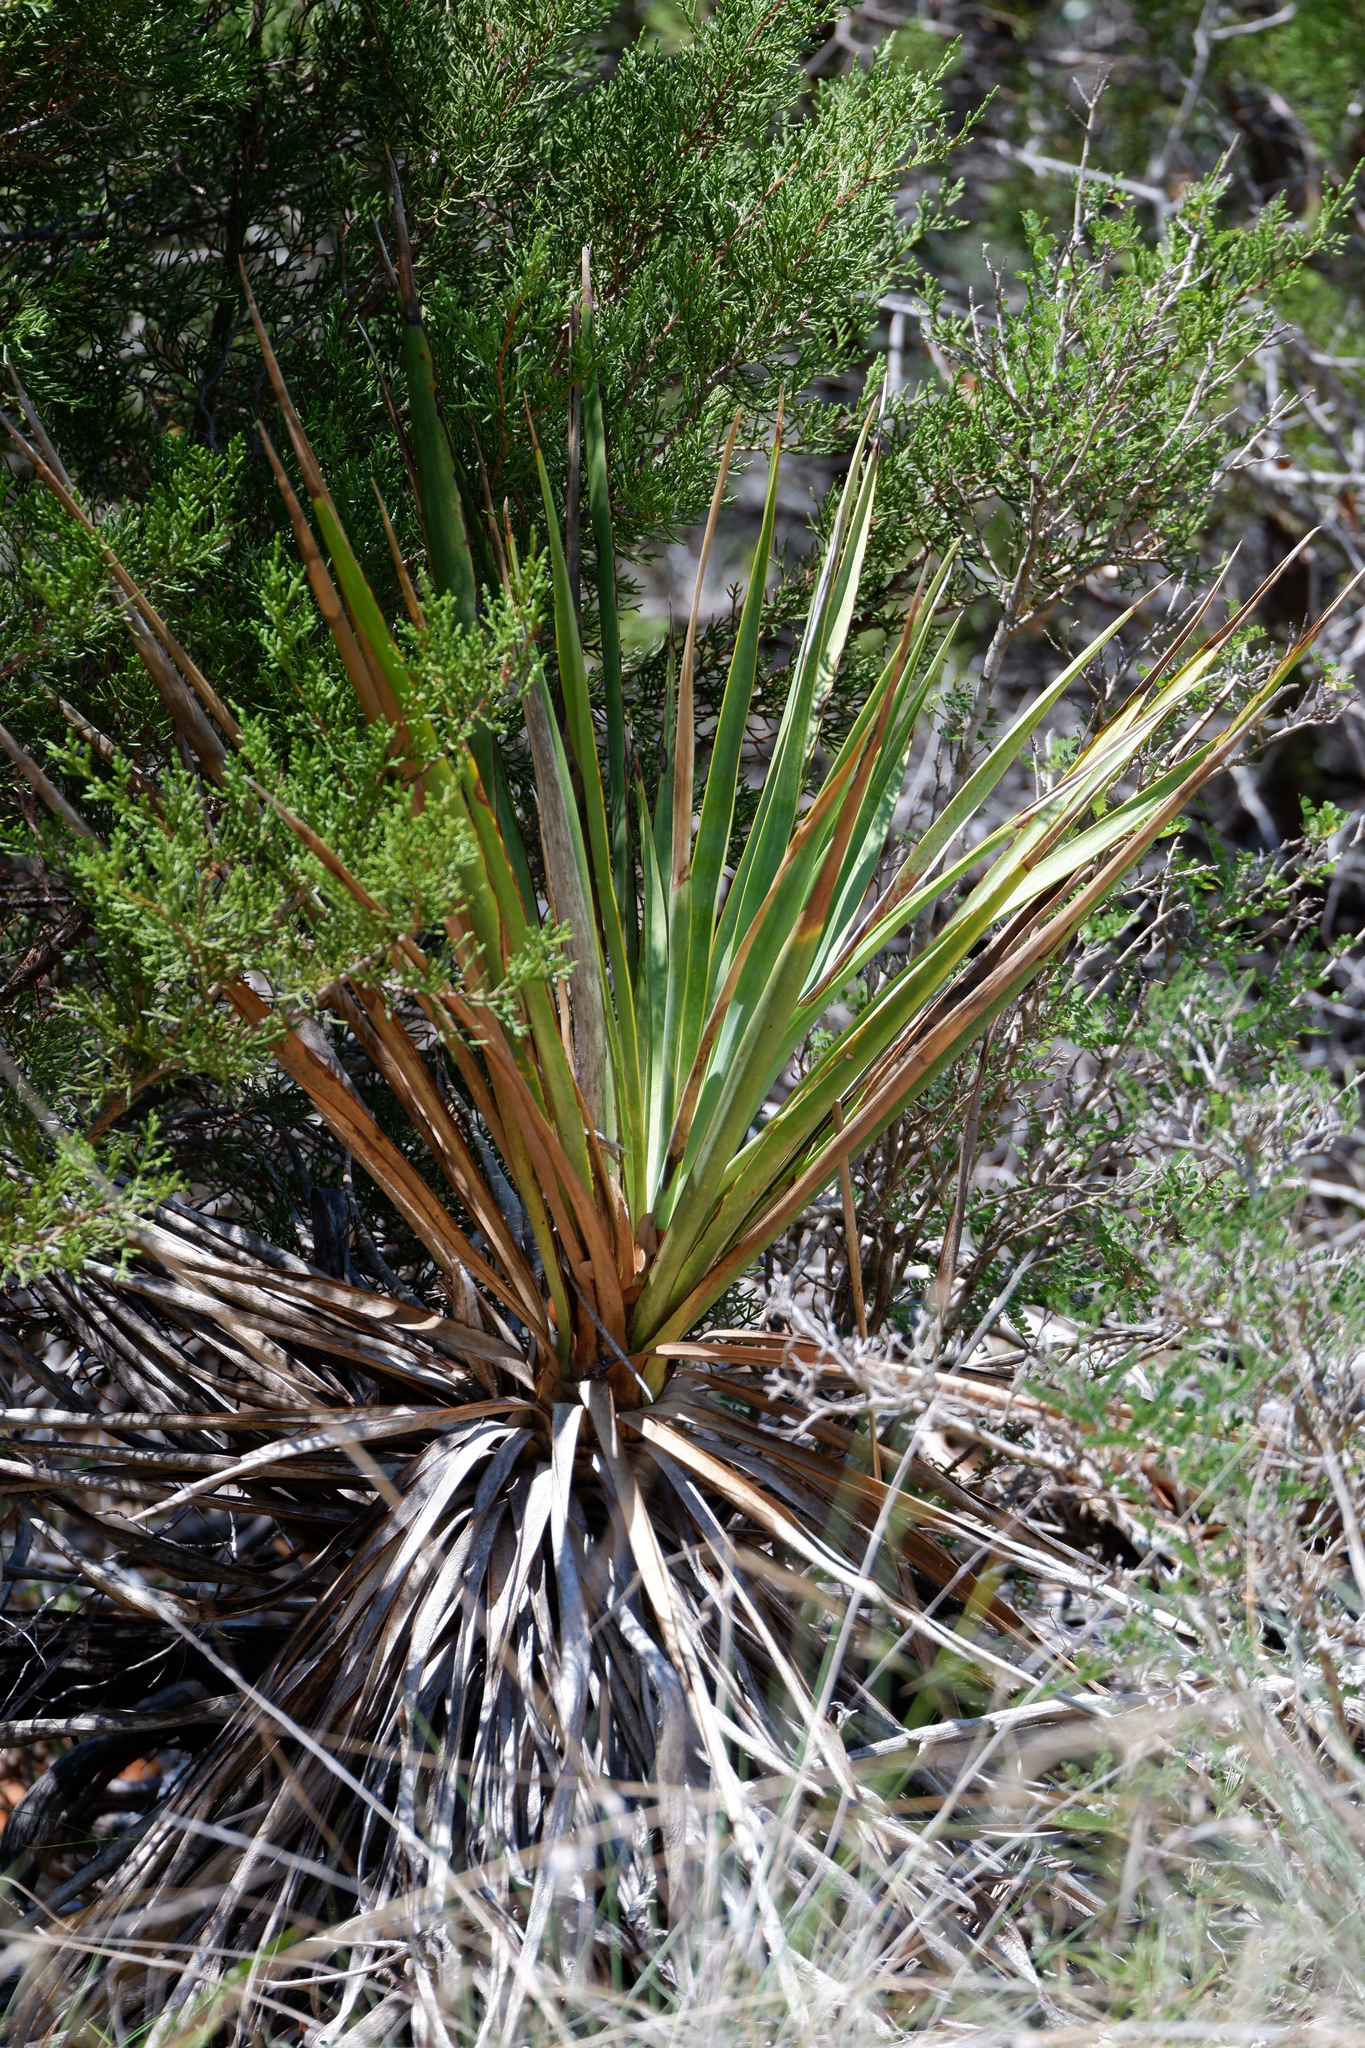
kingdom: Plantae
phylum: Tracheophyta
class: Liliopsida
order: Asparagales
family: Asparagaceae
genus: Yucca
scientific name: Yucca rupicola
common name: Twisted-leaf spanish-dagger
